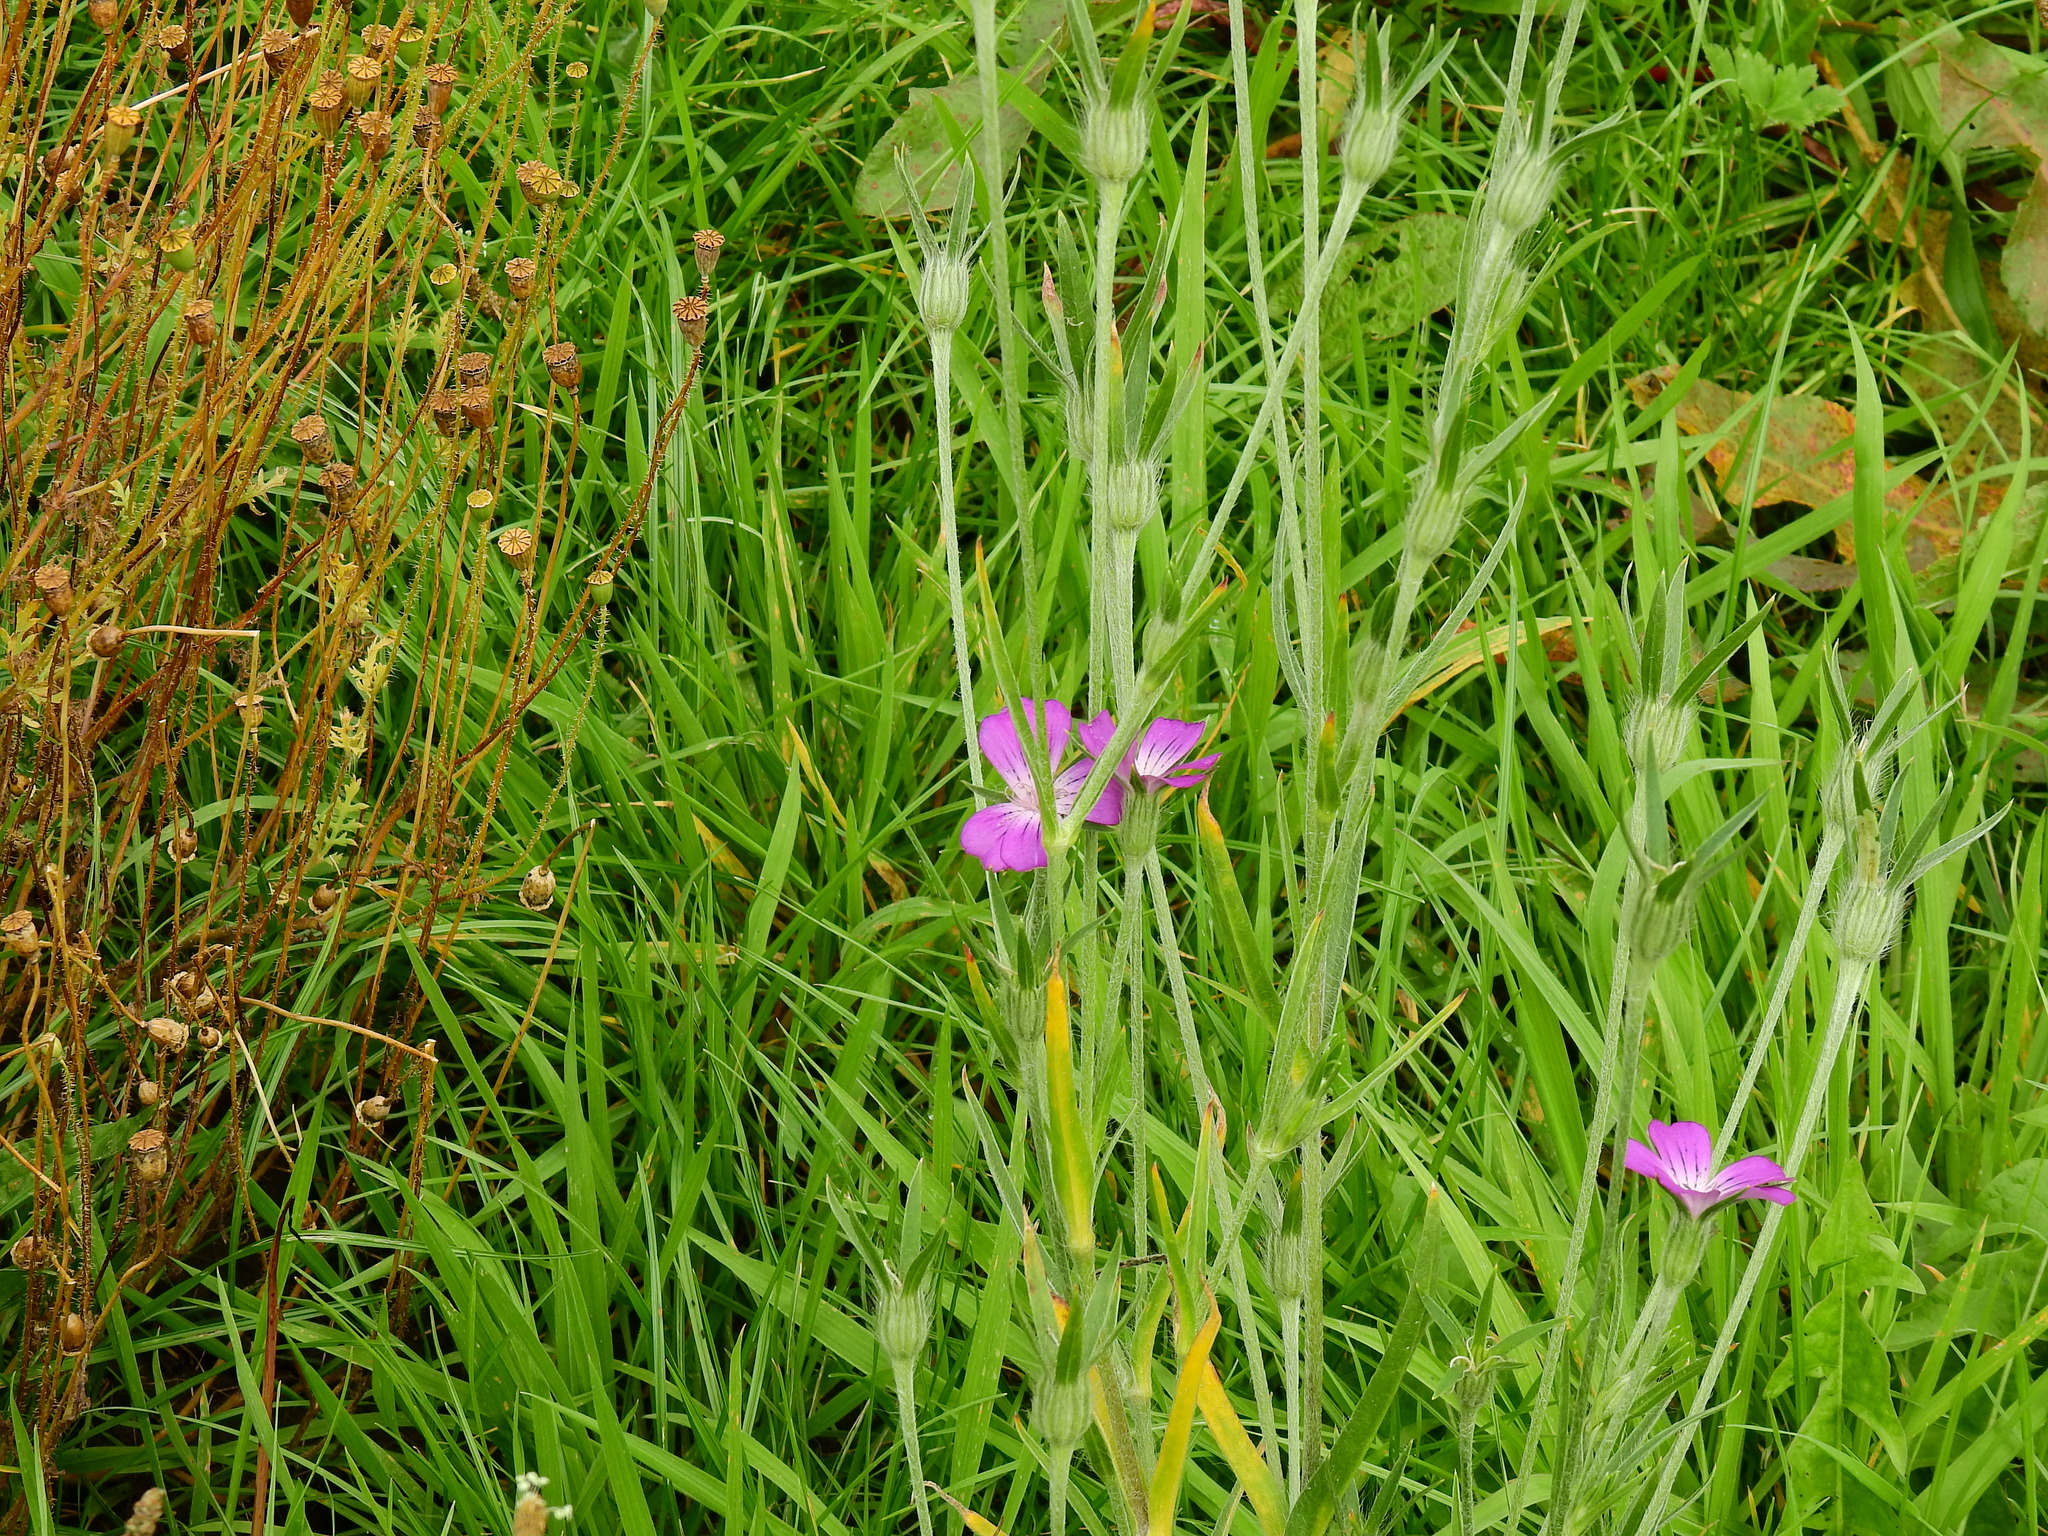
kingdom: Plantae
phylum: Tracheophyta
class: Magnoliopsida
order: Caryophyllales
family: Caryophyllaceae
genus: Agrostemma
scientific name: Agrostemma githago
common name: Common corncockle
